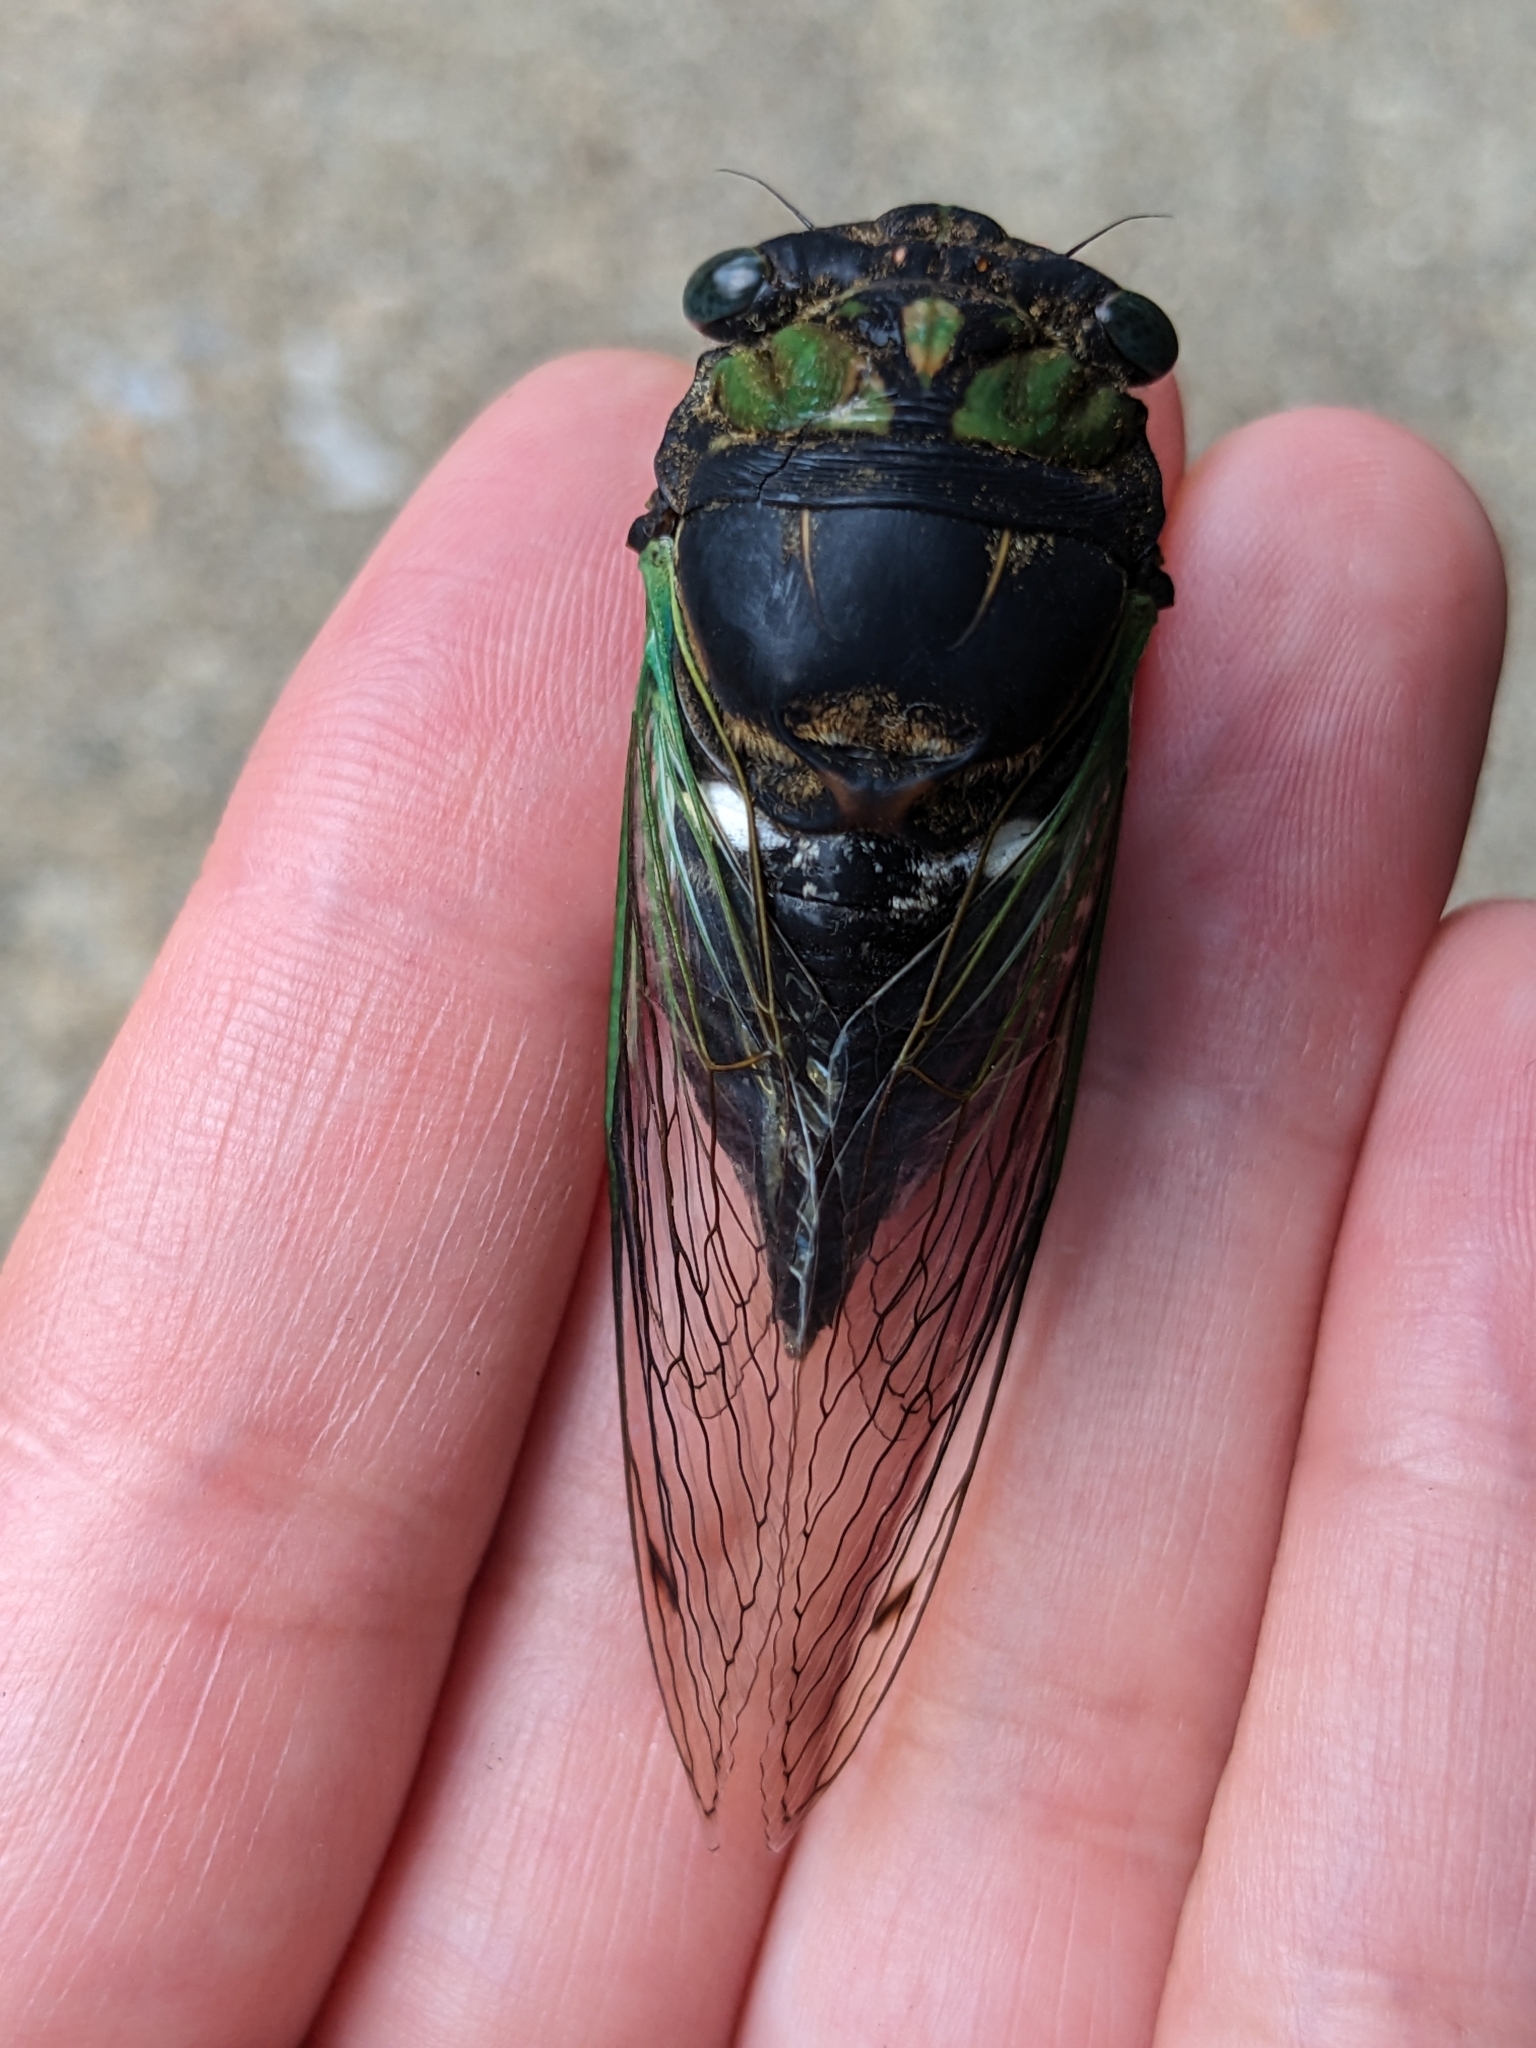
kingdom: Animalia
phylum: Arthropoda
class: Insecta
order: Hemiptera
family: Cicadidae
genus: Neotibicen
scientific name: Neotibicen tibicen
